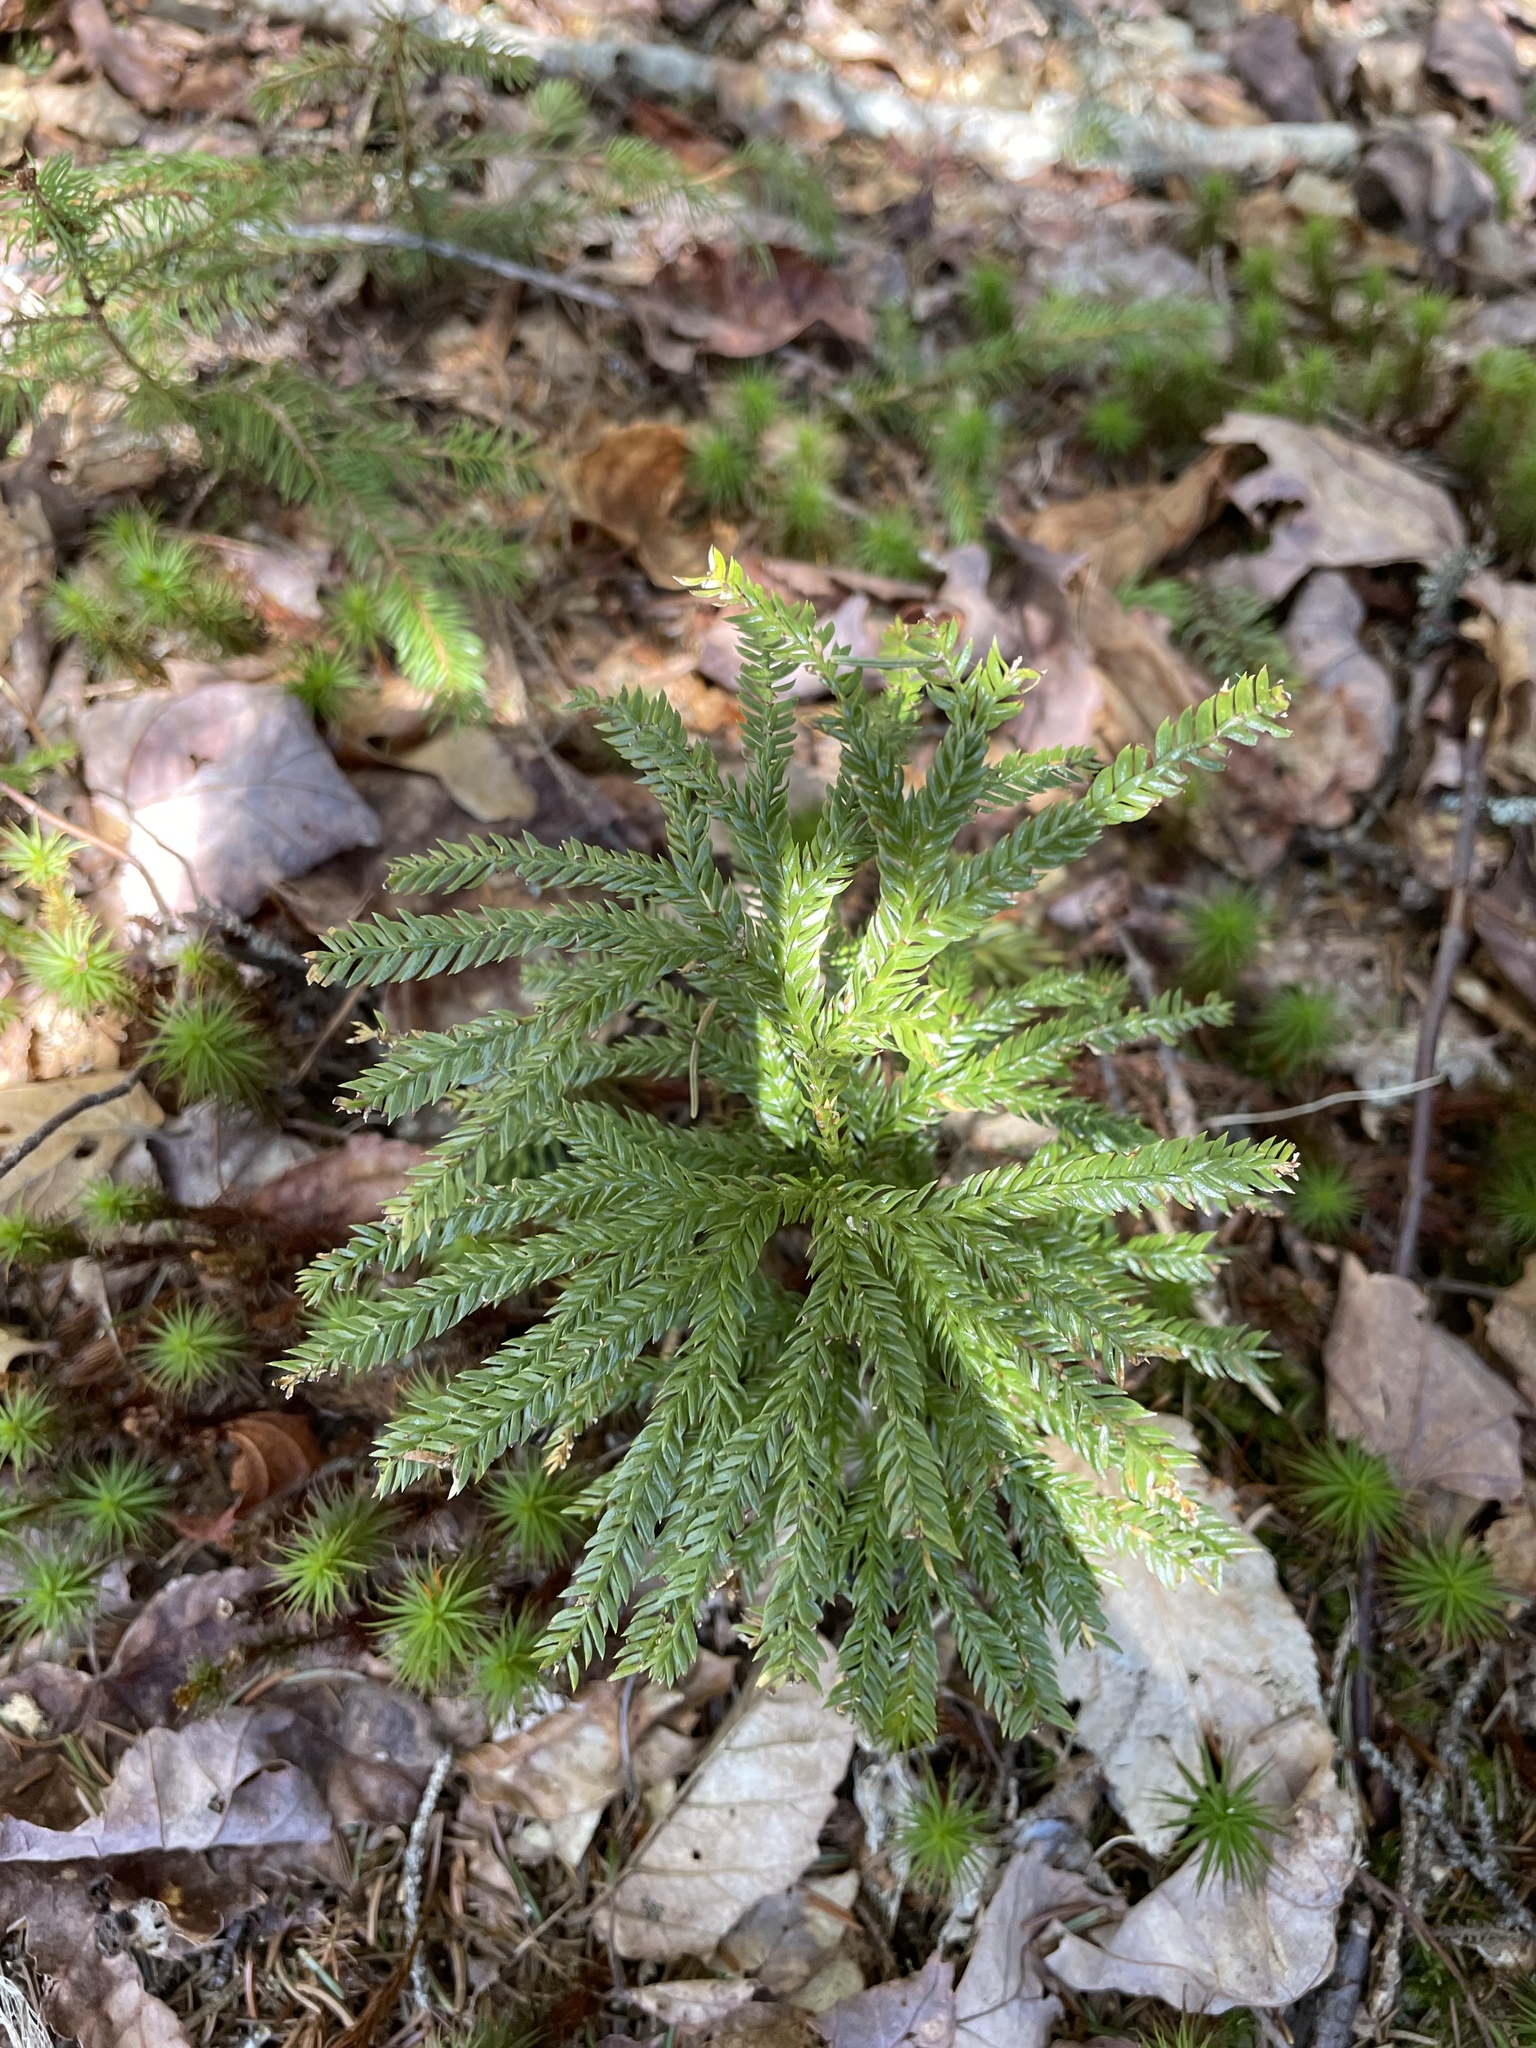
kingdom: Plantae
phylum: Tracheophyta
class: Lycopodiopsida
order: Lycopodiales
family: Lycopodiaceae
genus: Dendrolycopodium
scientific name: Dendrolycopodium obscurum
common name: Common ground-pine
